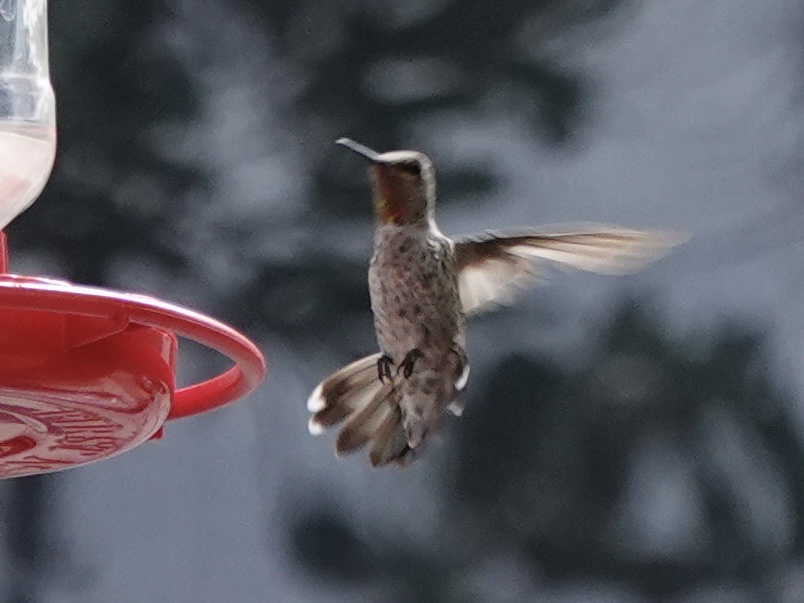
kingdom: Animalia
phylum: Chordata
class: Aves
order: Apodiformes
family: Trochilidae
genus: Calypte
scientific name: Calypte anna
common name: Anna's hummingbird
